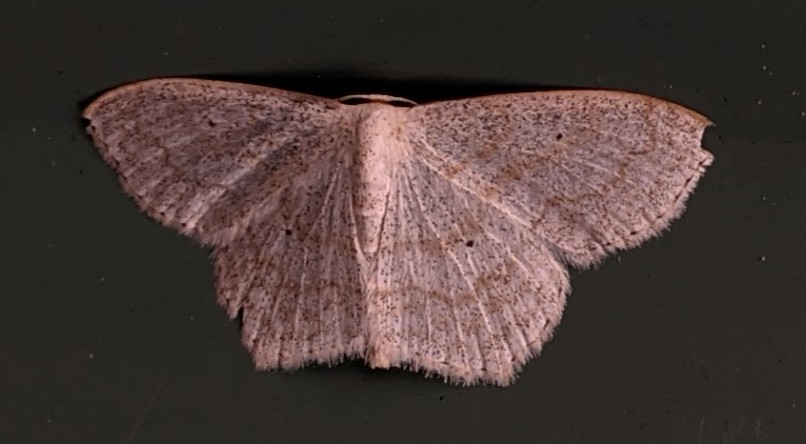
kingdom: Animalia
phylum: Arthropoda
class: Insecta
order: Lepidoptera
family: Geometridae
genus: Scopula
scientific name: Scopula limboundata
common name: Large lace border
